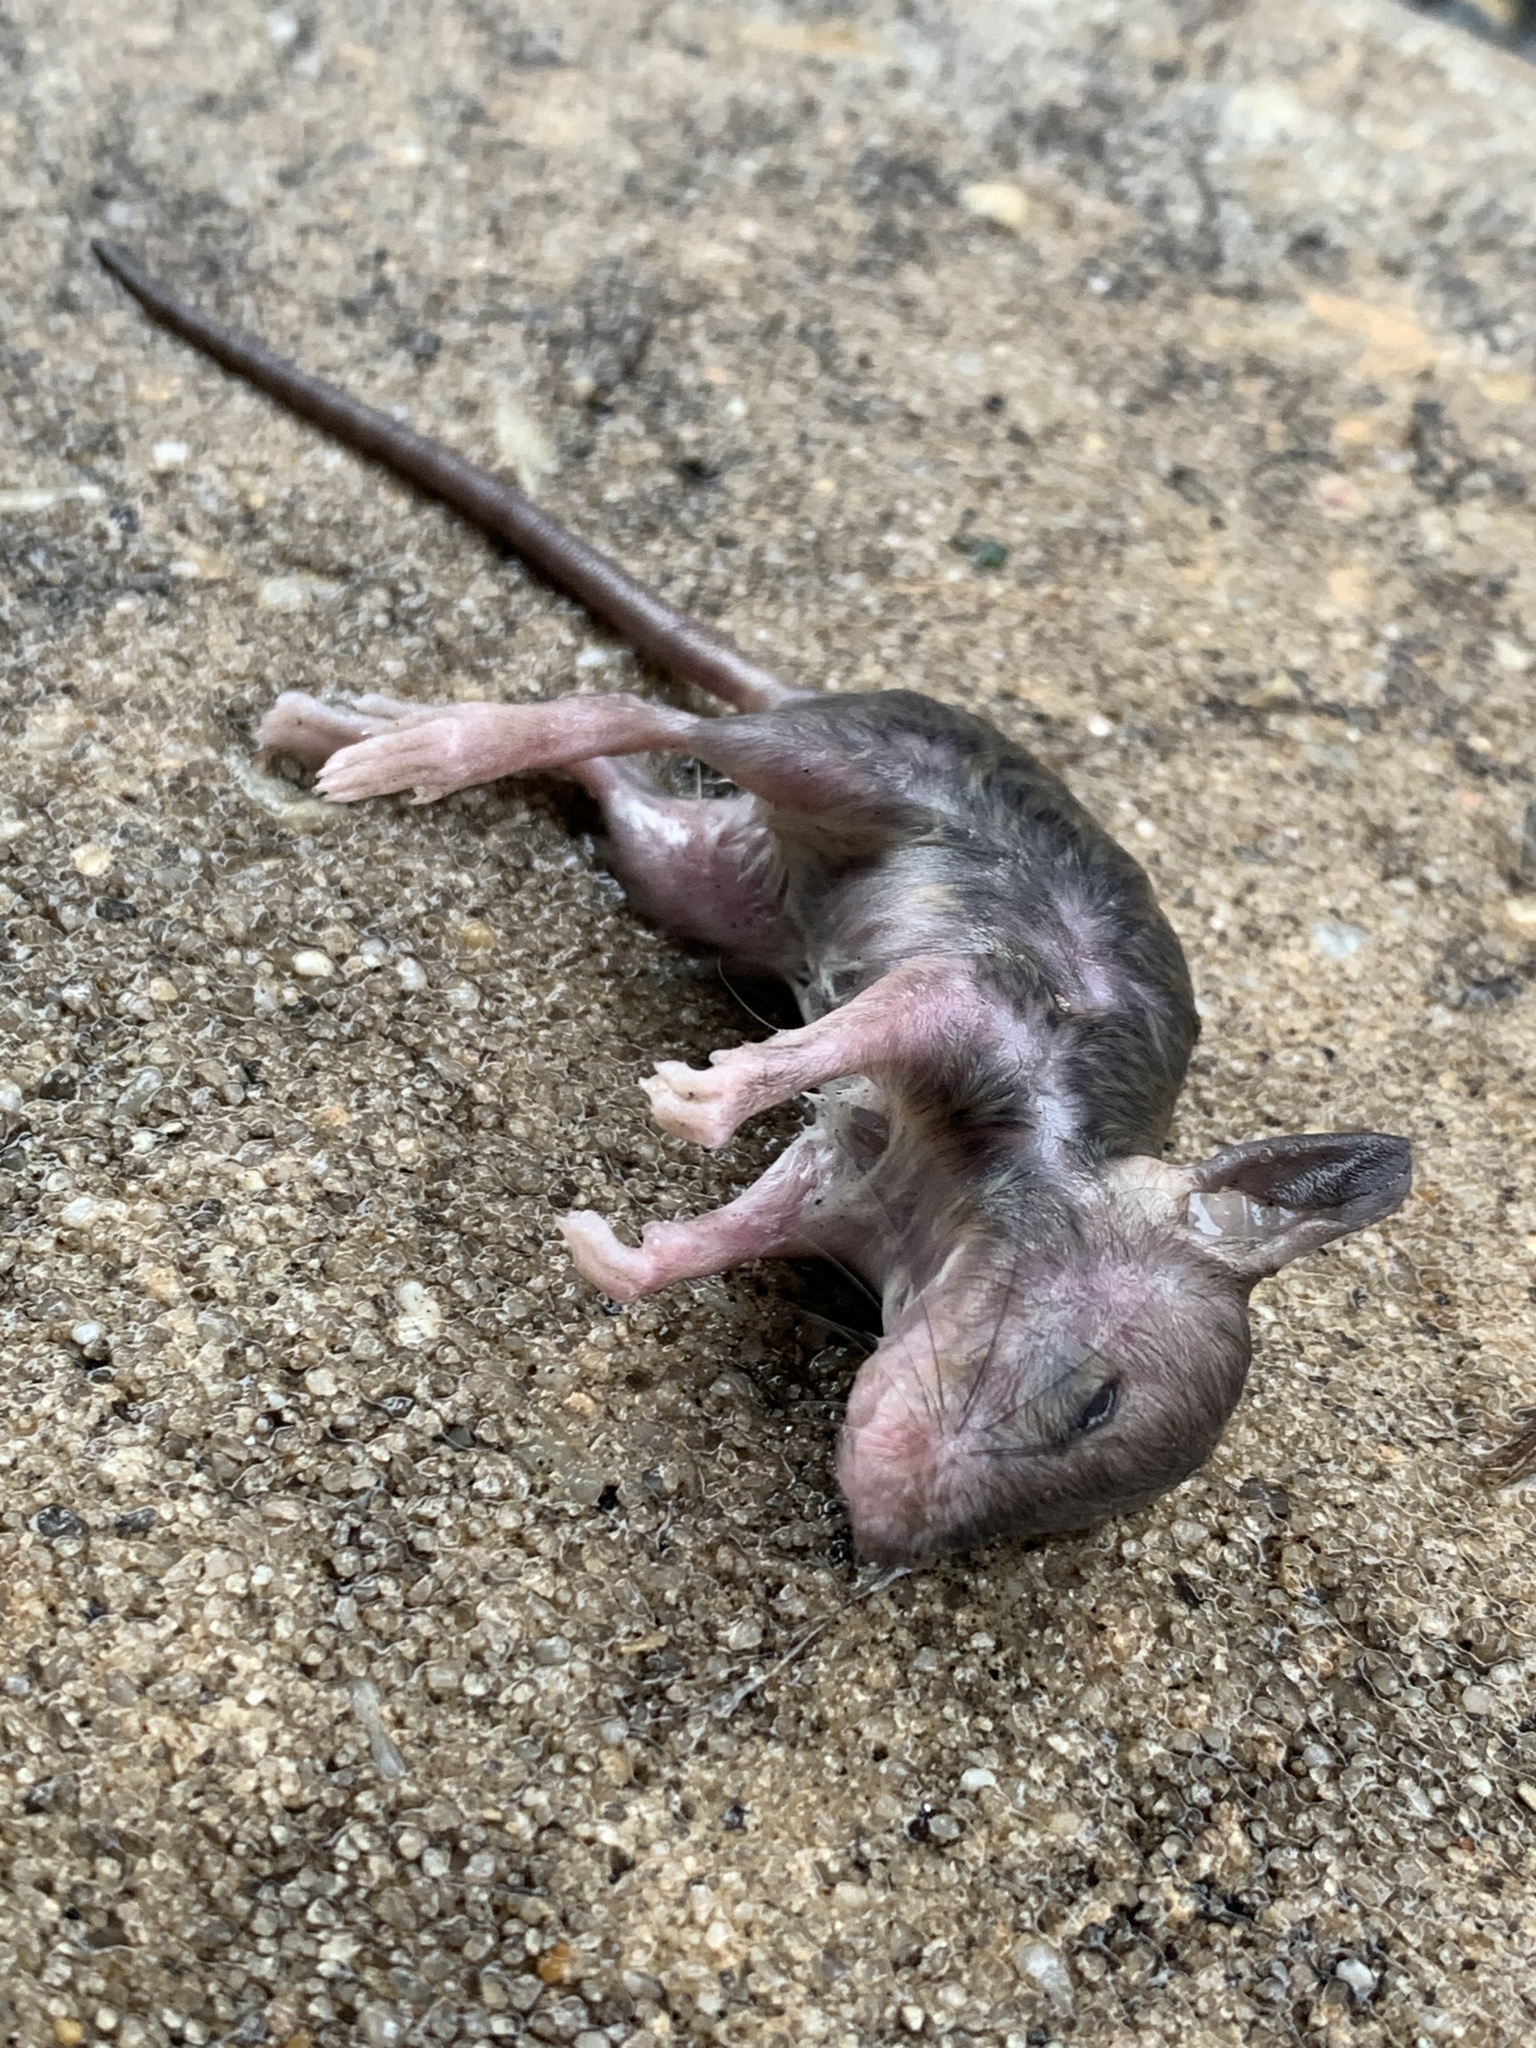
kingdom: Animalia
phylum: Chordata
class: Mammalia
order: Rodentia
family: Muridae
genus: Rattus
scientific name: Rattus norvegicus
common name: Brown rat
